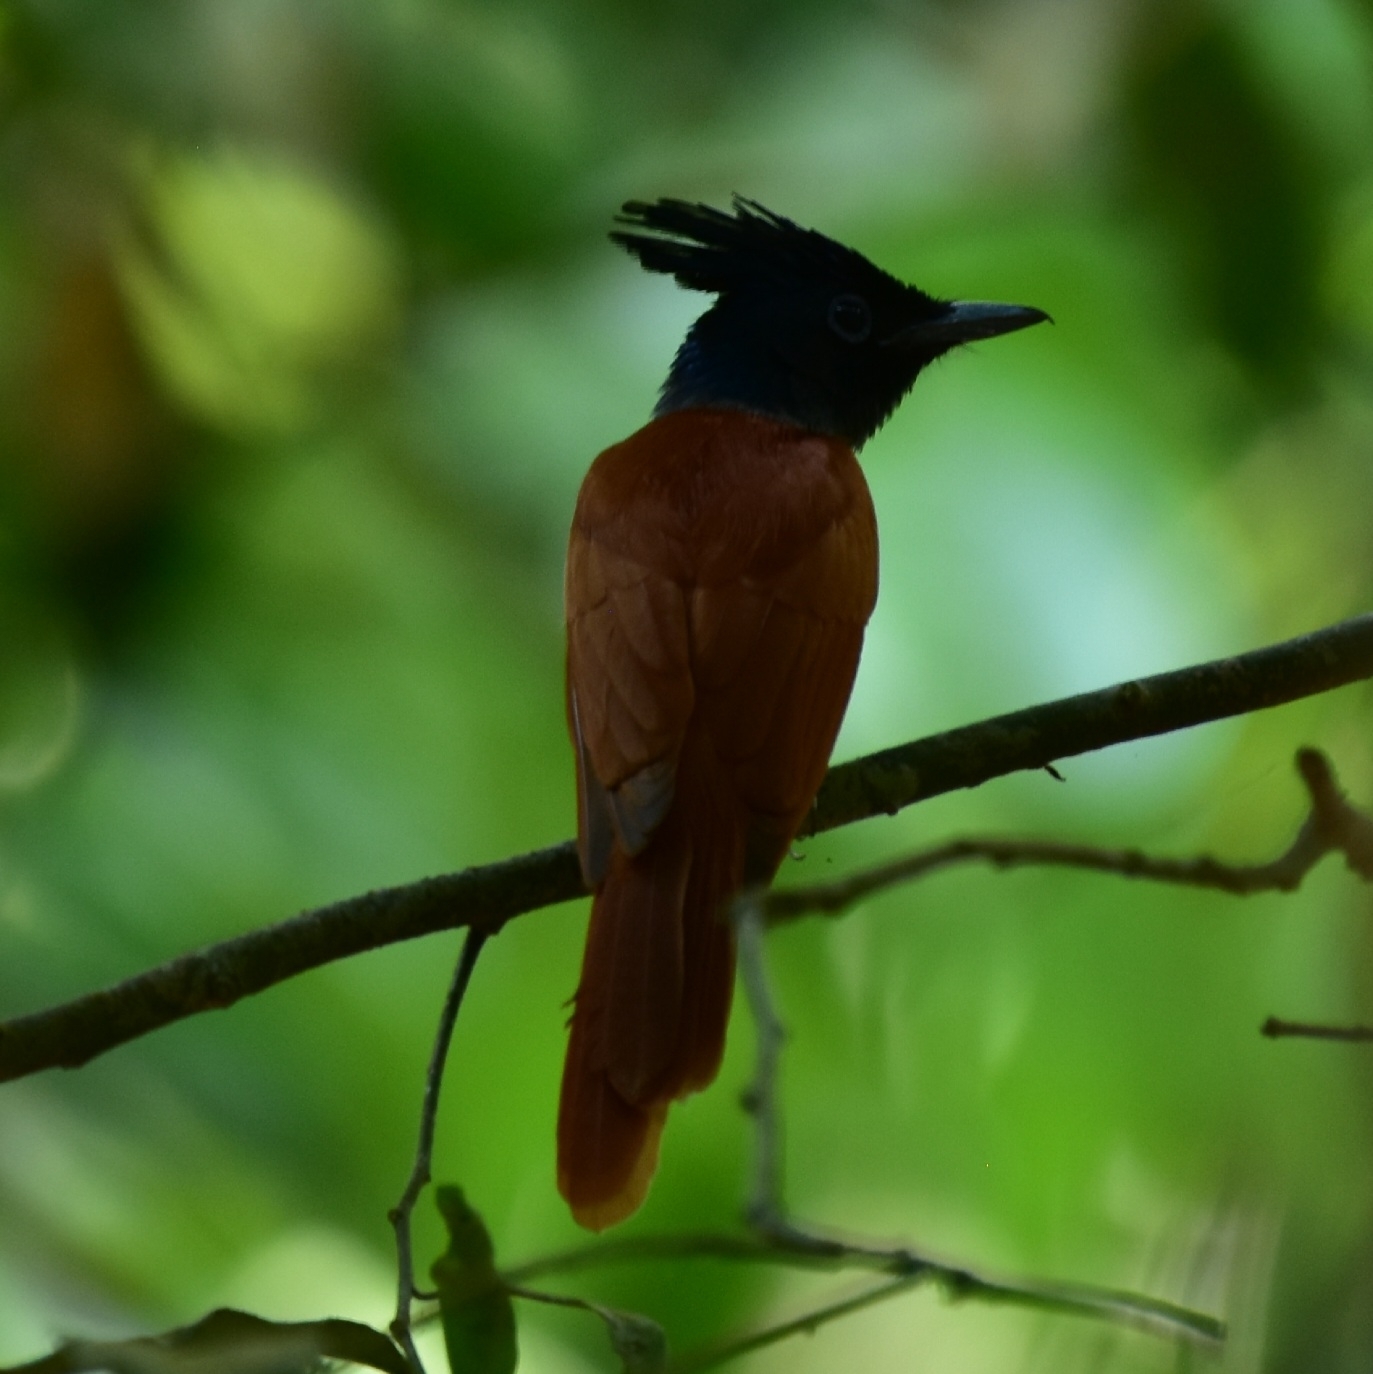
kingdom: Animalia
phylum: Chordata
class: Aves
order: Passeriformes
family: Monarchidae
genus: Terpsiphone
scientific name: Terpsiphone paradisi
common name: Indian paradise flycatcher
